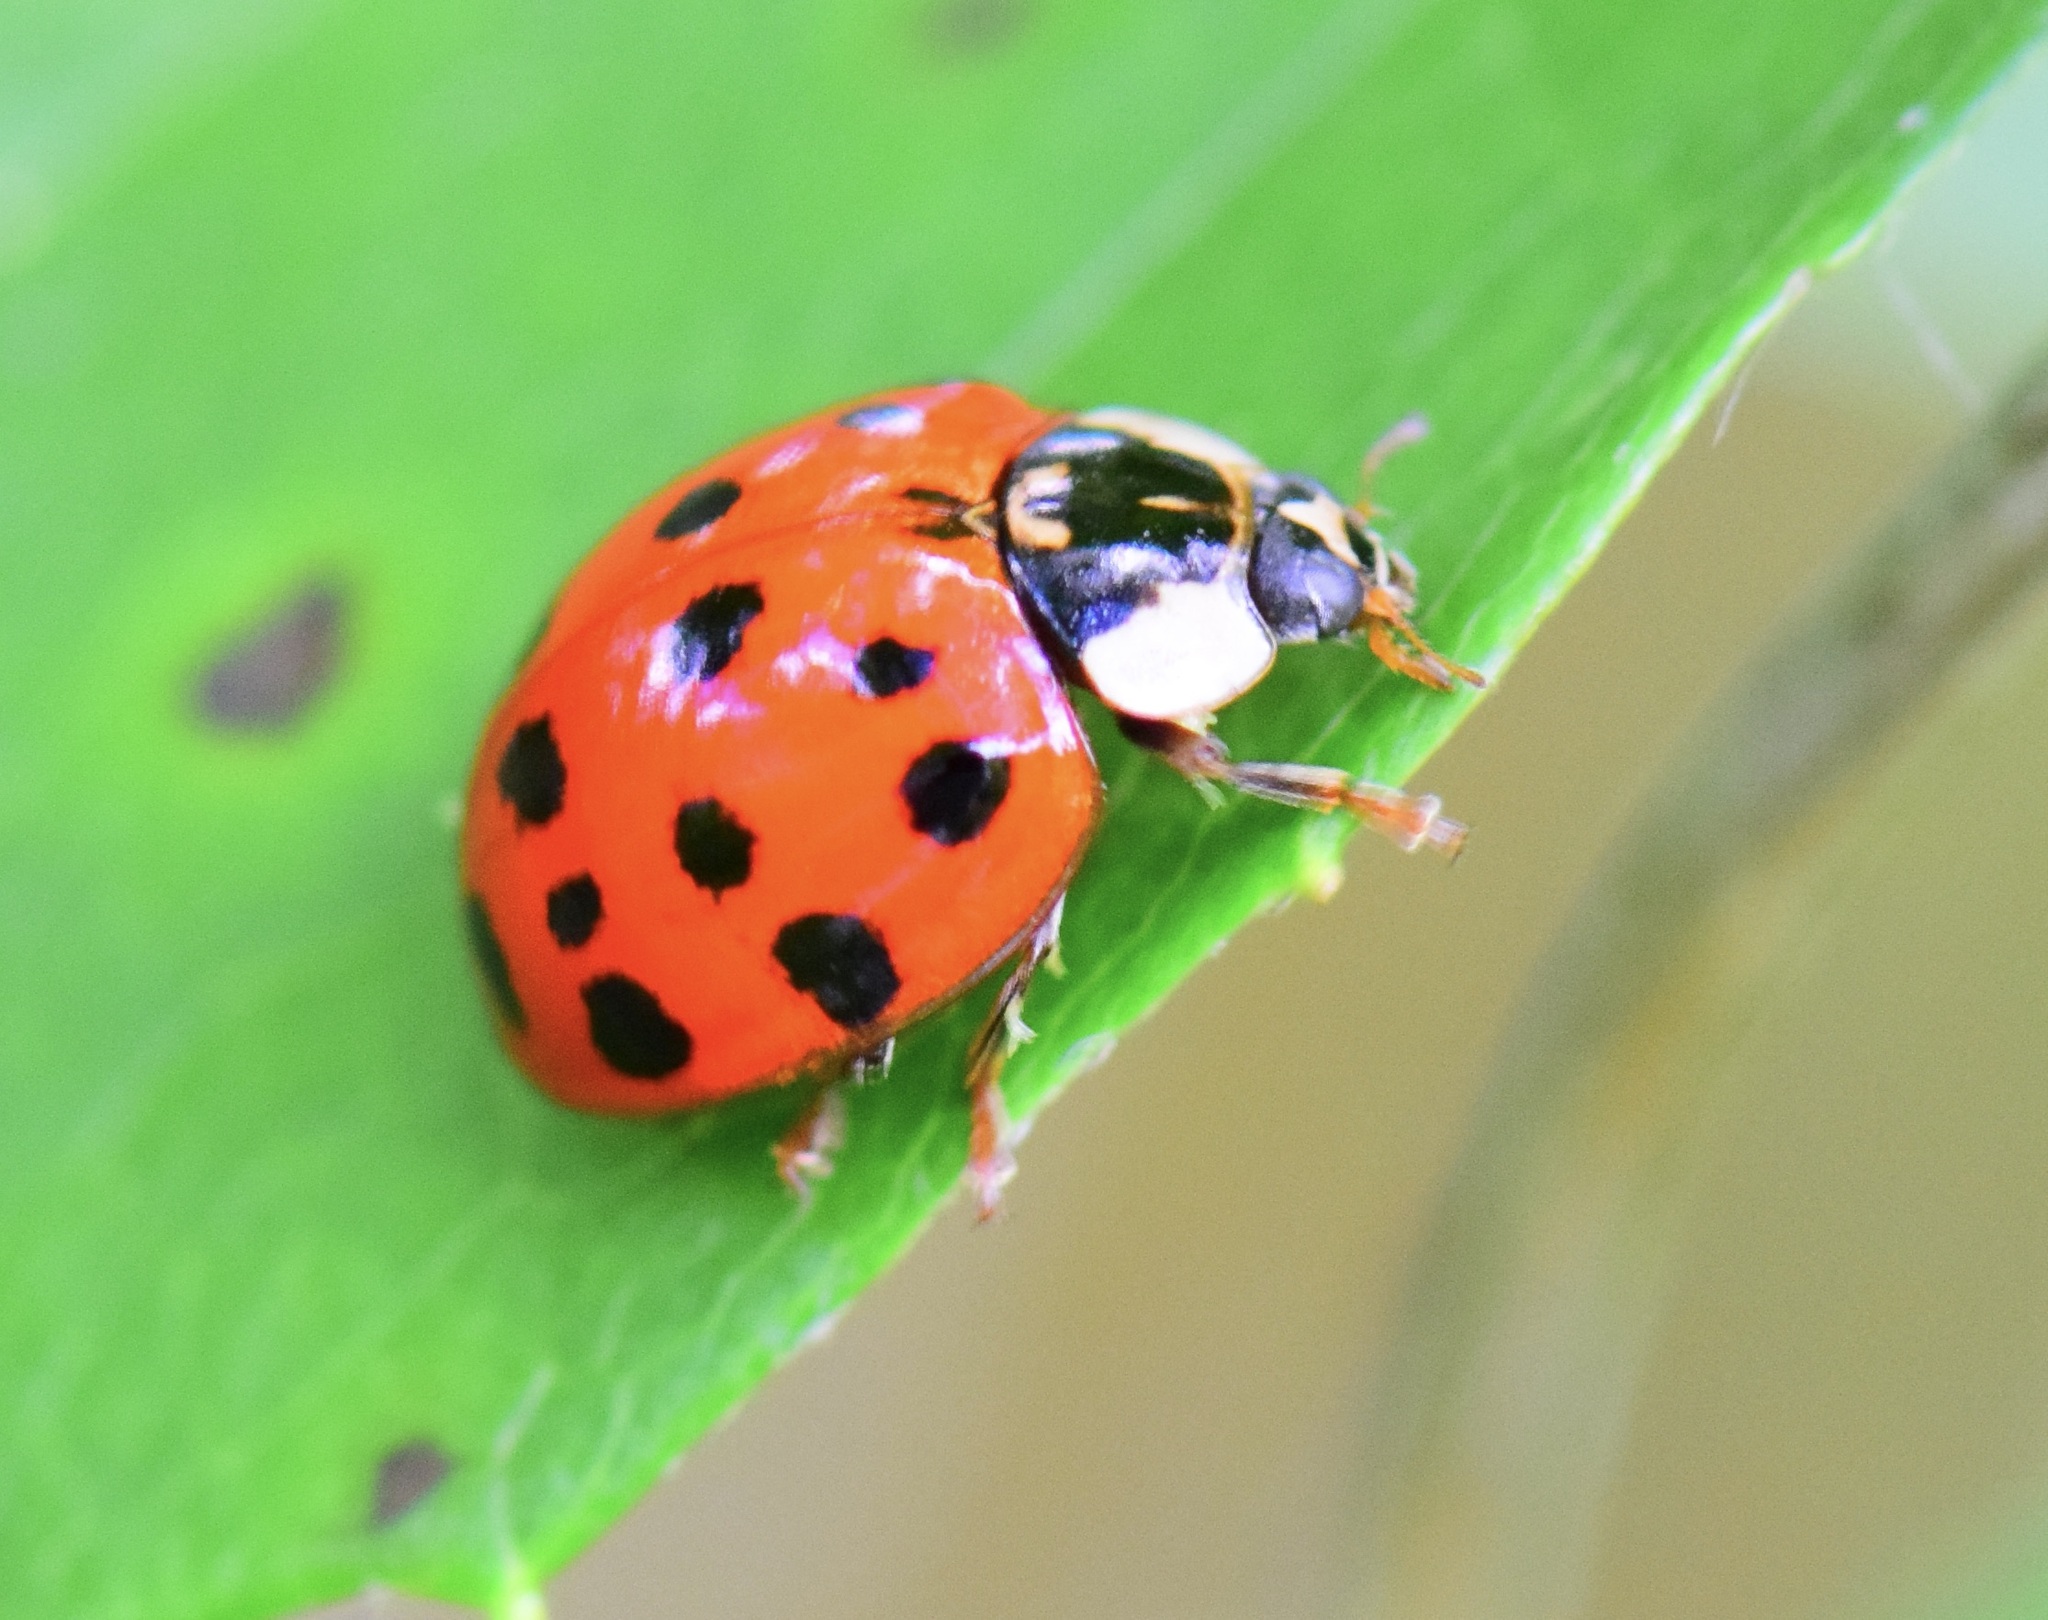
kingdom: Animalia
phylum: Arthropoda
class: Insecta
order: Coleoptera
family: Coccinellidae
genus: Harmonia
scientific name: Harmonia axyridis
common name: Harlequin ladybird
